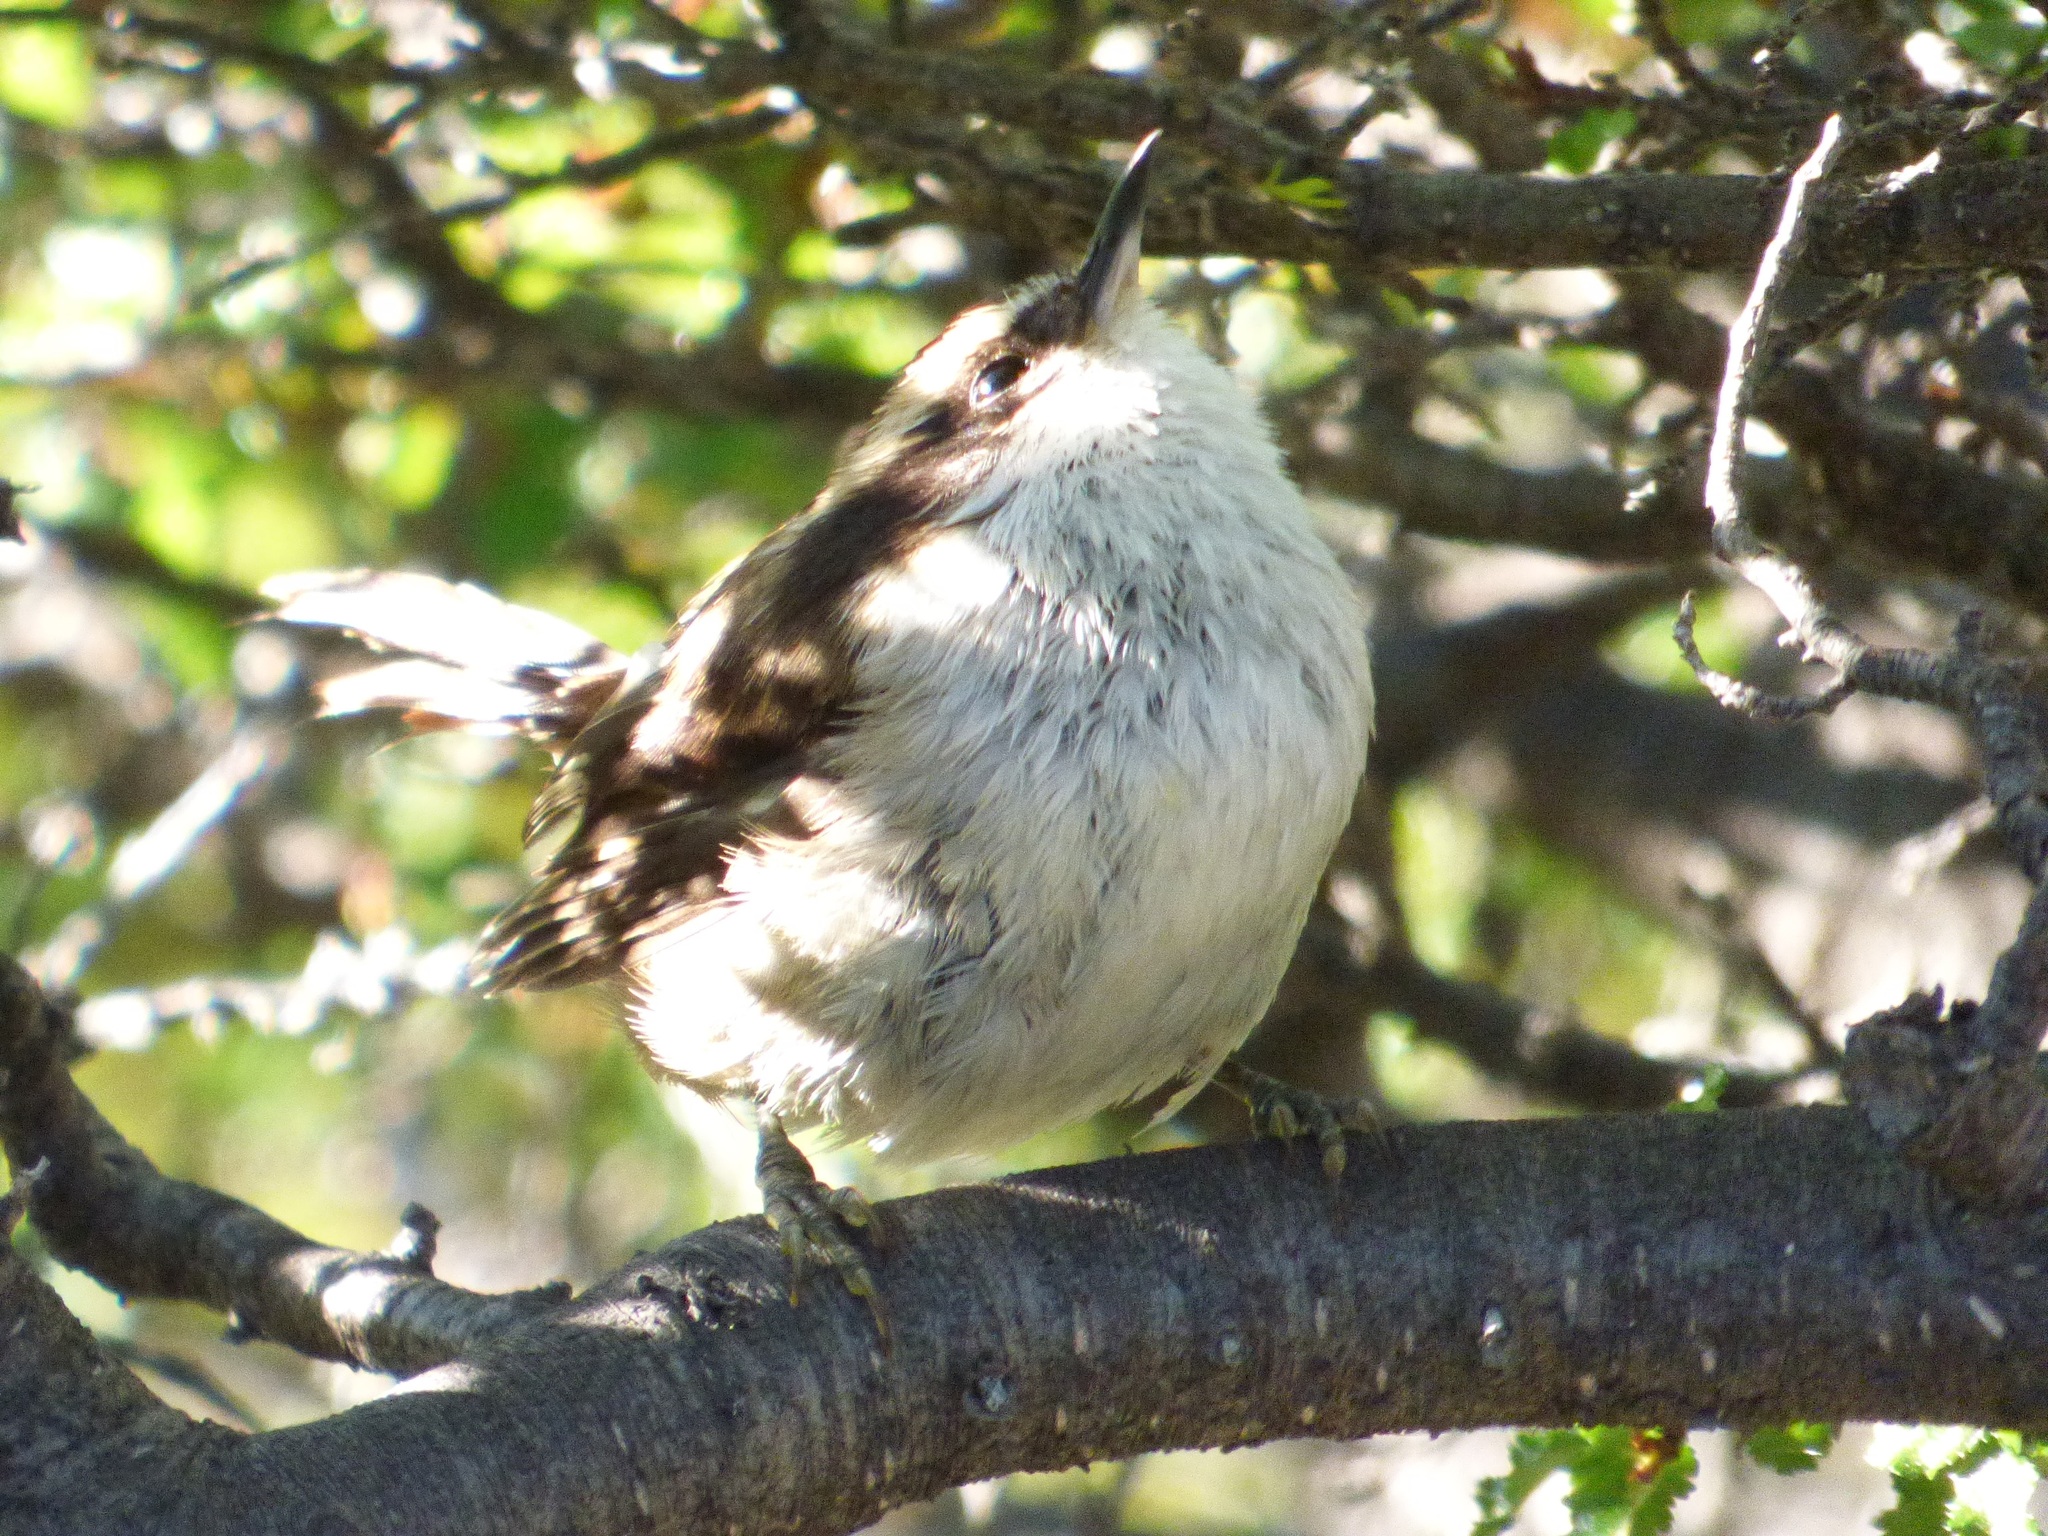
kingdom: Animalia
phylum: Chordata
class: Aves
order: Passeriformes
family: Furnariidae
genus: Aphrastura
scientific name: Aphrastura spinicauda
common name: Thorn-tailed rayadito
